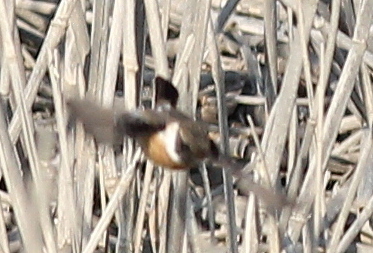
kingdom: Animalia
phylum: Chordata
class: Aves
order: Passeriformes
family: Muscicapidae
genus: Saxicola
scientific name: Saxicola rubicola
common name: European stonechat
